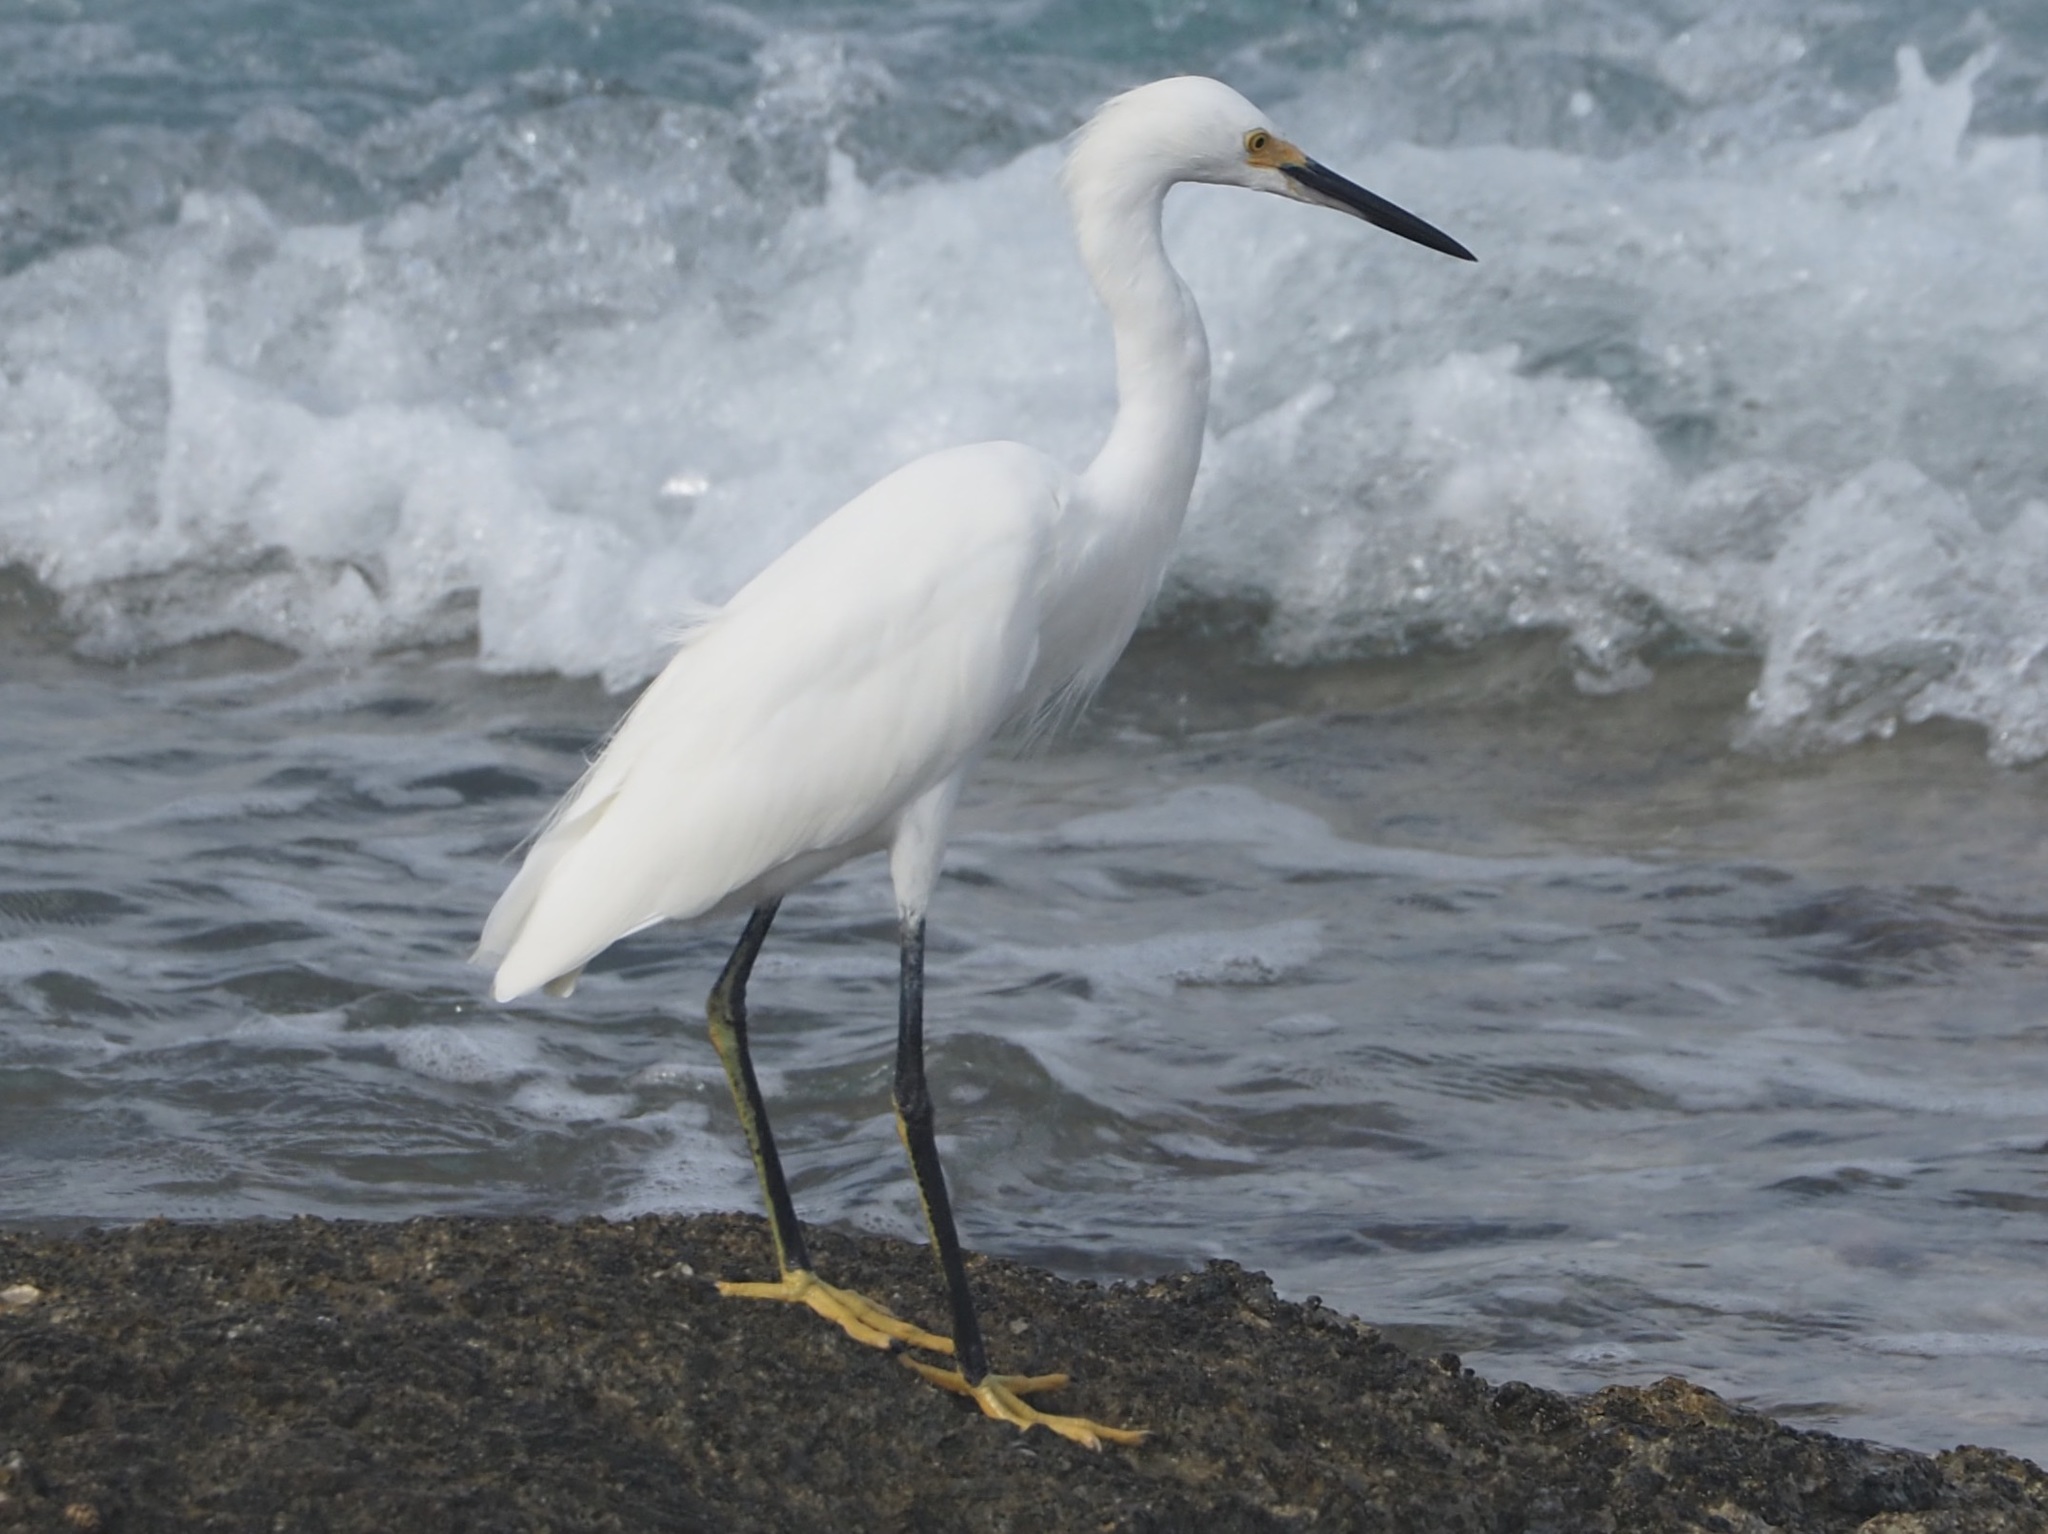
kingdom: Animalia
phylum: Chordata
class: Aves
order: Pelecaniformes
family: Ardeidae
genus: Egretta
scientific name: Egretta thula
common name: Snowy egret
